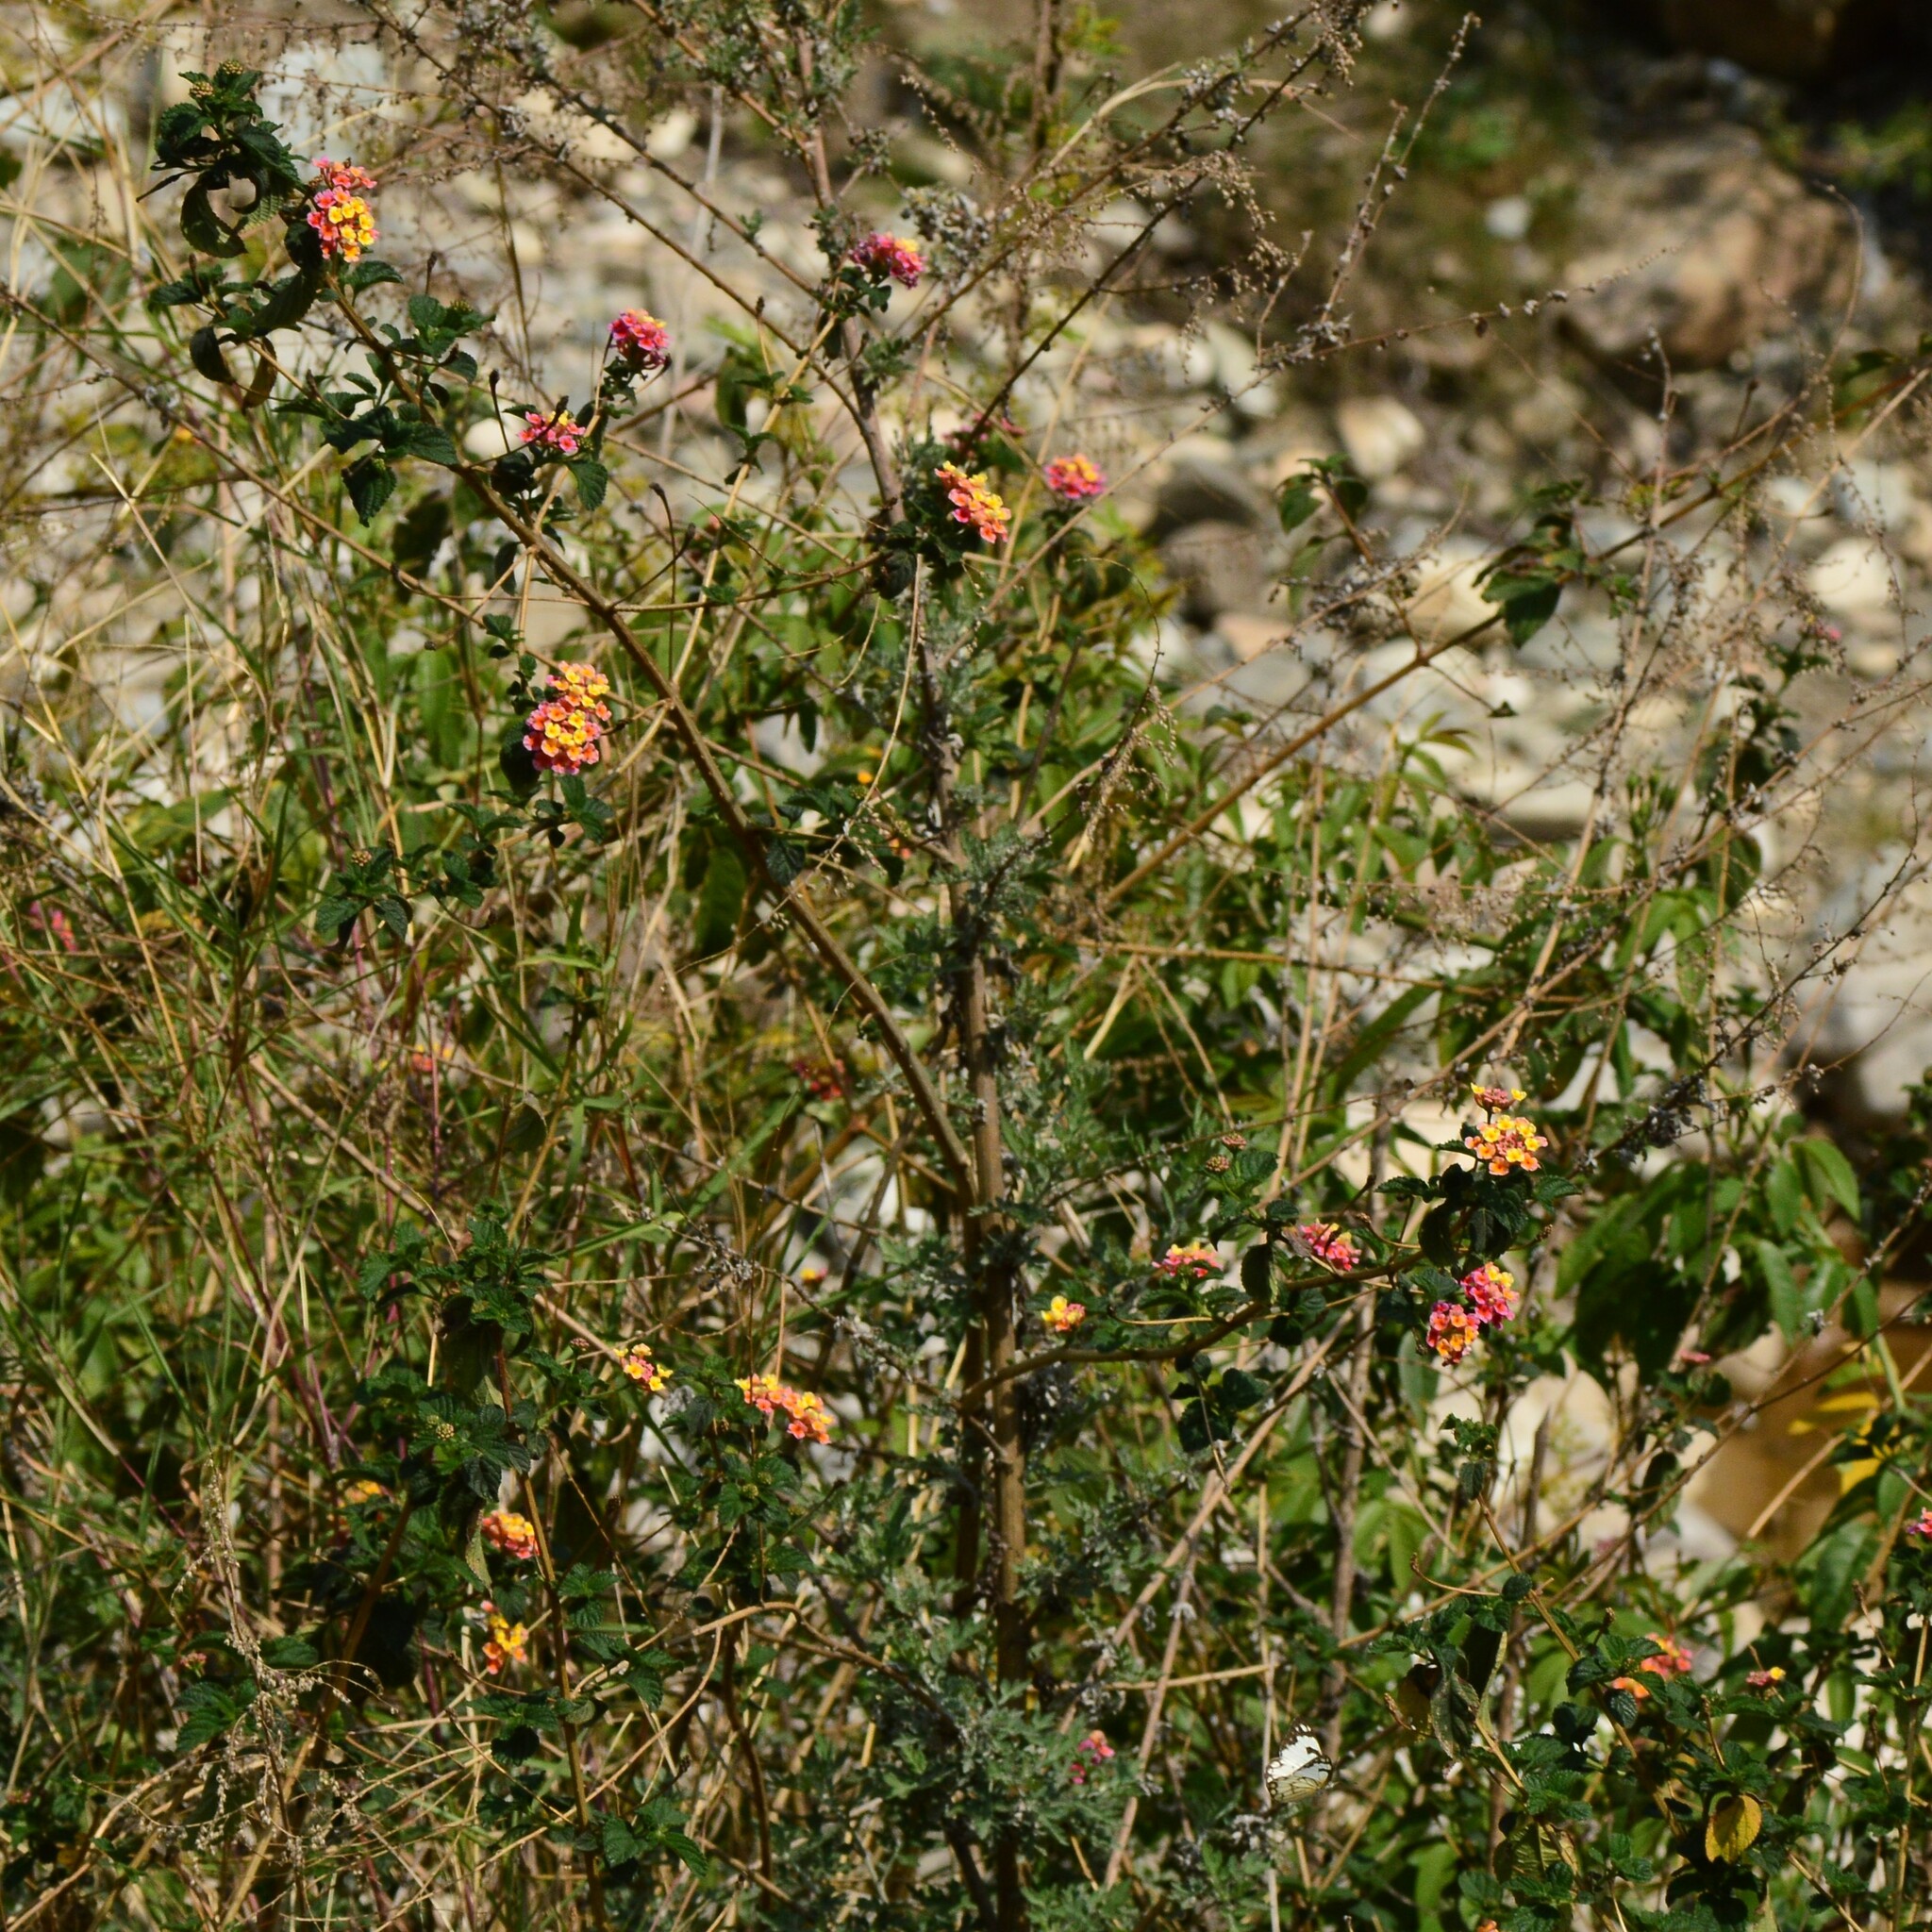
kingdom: Plantae
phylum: Tracheophyta
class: Magnoliopsida
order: Lamiales
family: Verbenaceae
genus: Lantana
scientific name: Lantana camara
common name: Lantana
